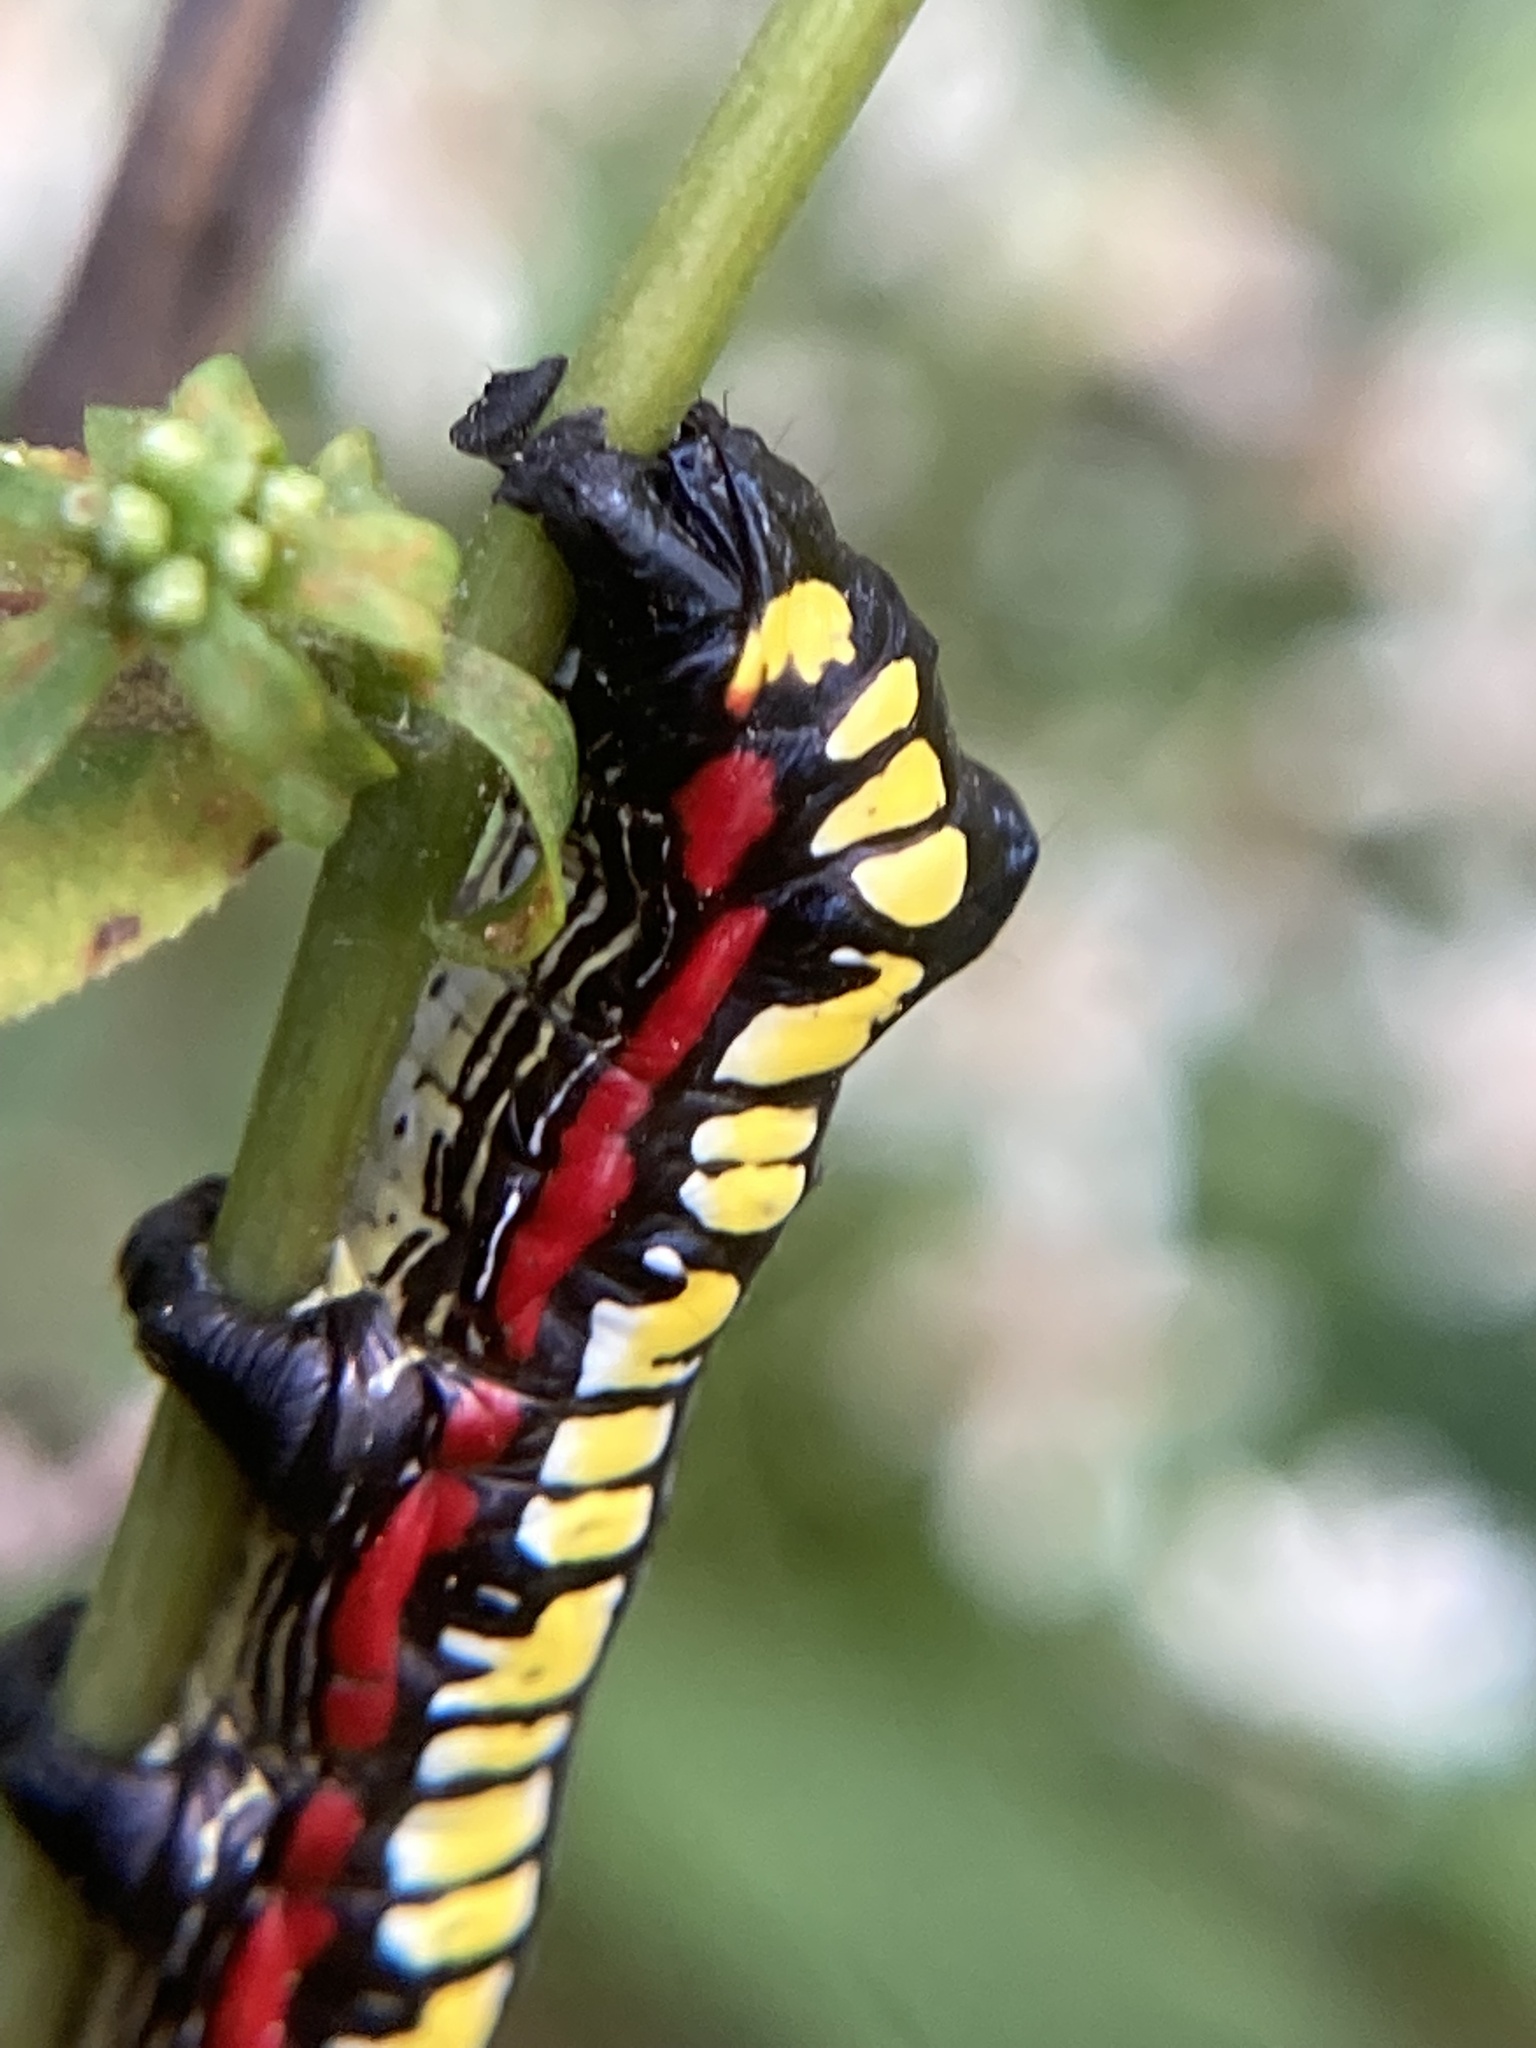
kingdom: Animalia
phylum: Arthropoda
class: Insecta
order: Lepidoptera
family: Noctuidae
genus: Cucullia
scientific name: Cucullia convexipennis
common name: Brown-hooded owlet
